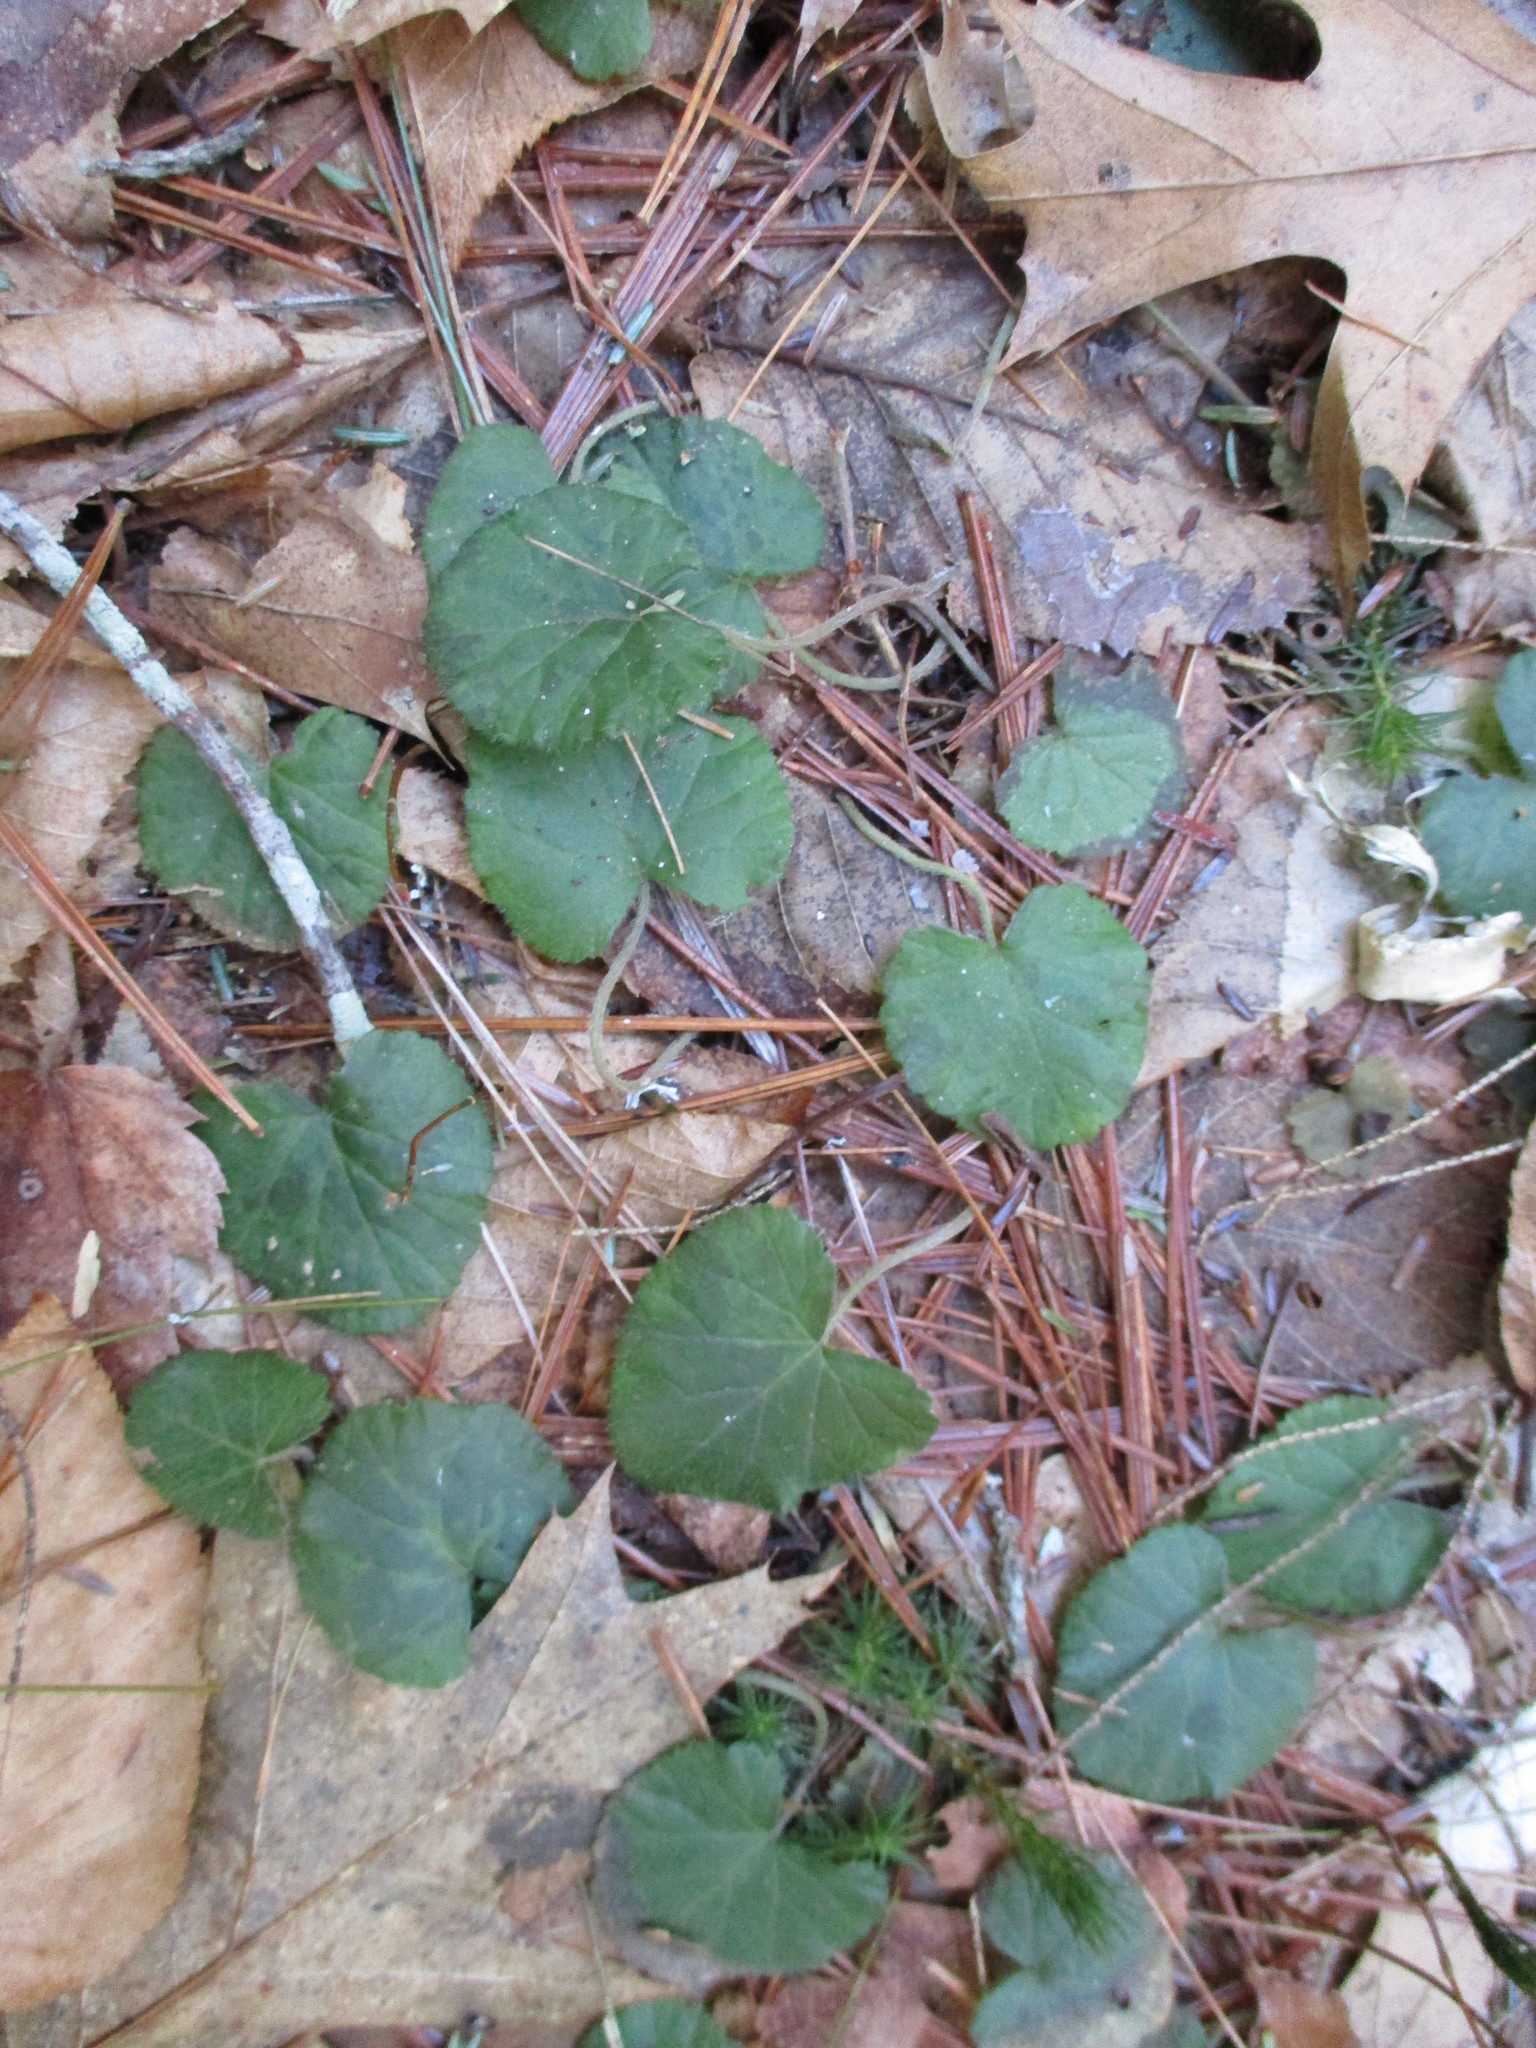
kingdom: Plantae
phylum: Tracheophyta
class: Magnoliopsida
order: Rosales
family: Rosaceae
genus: Dalibarda
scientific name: Dalibarda repens
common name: Dewdrop
